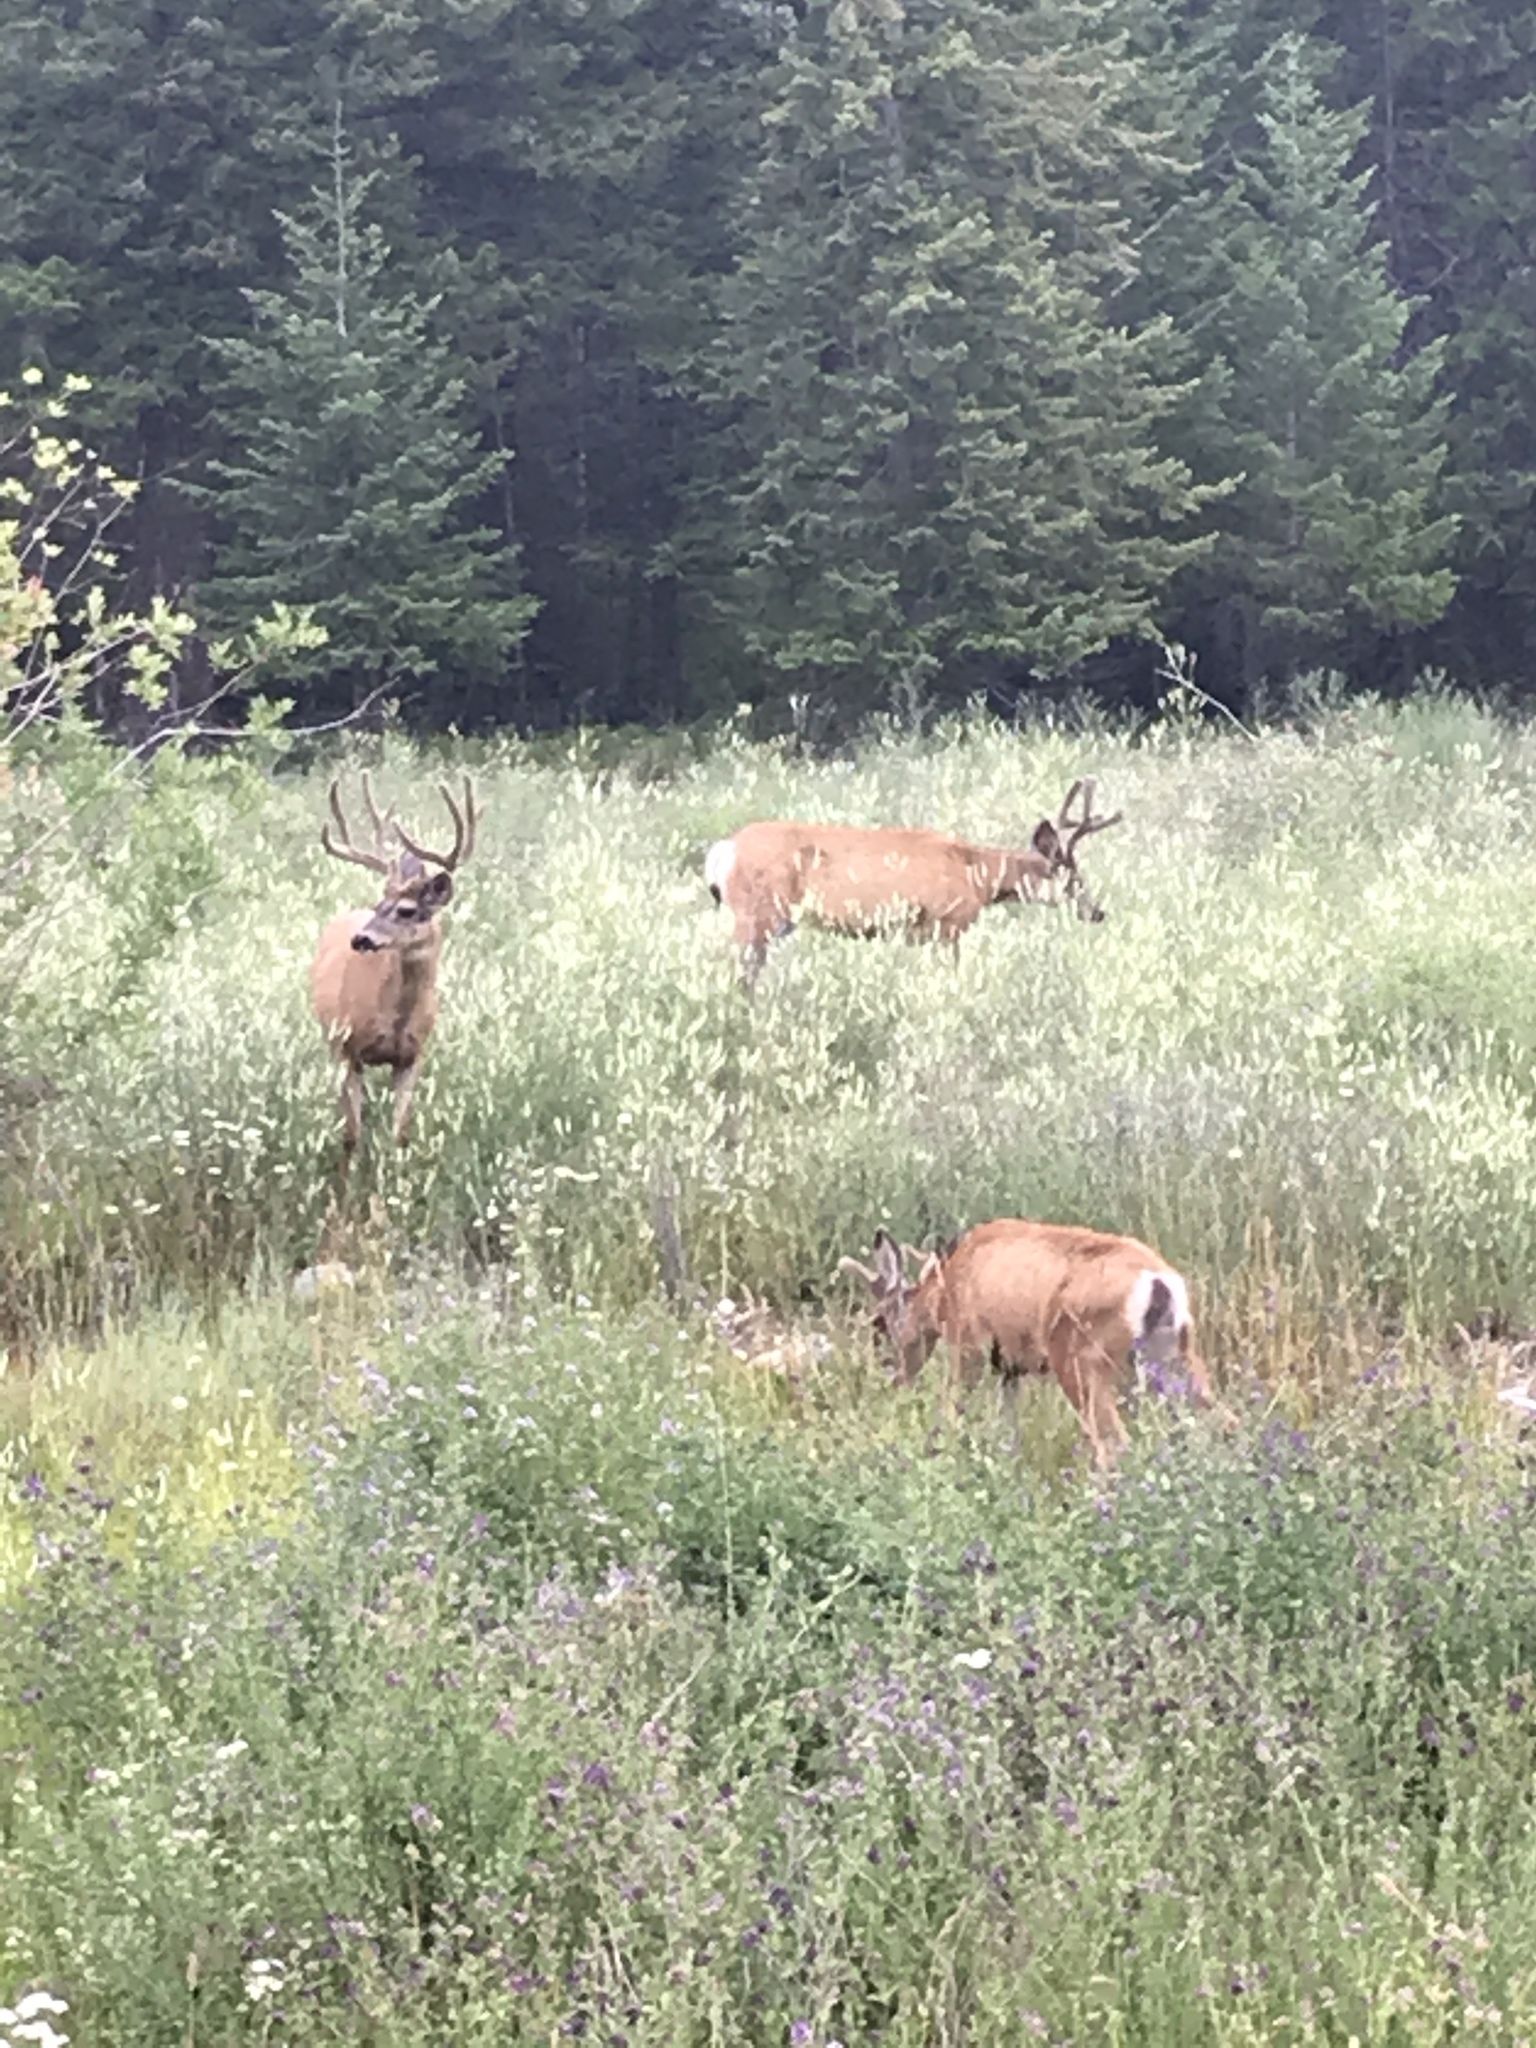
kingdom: Animalia
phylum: Chordata
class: Mammalia
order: Artiodactyla
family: Cervidae
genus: Odocoileus
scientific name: Odocoileus hemionus
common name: Mule deer
